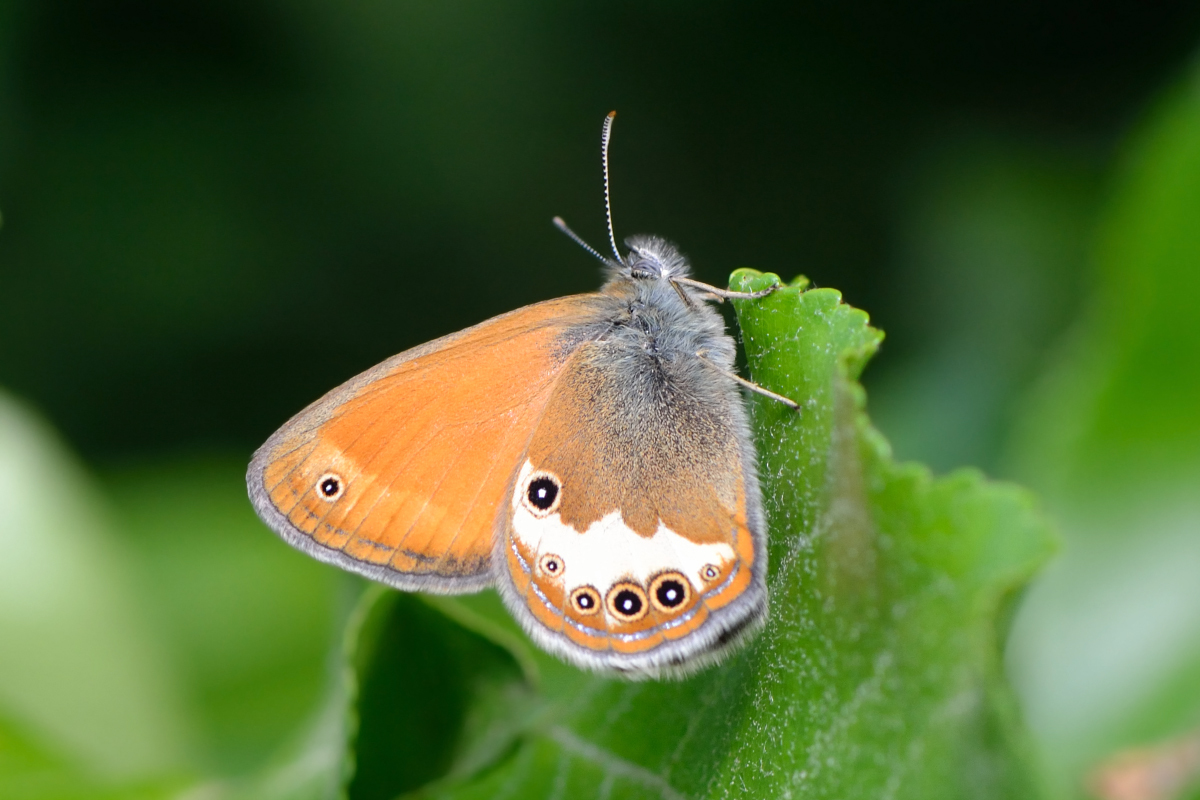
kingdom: Animalia
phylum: Arthropoda
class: Insecta
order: Lepidoptera
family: Nymphalidae
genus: Coenonympha
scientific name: Coenonympha arcania
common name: Pearly heath
